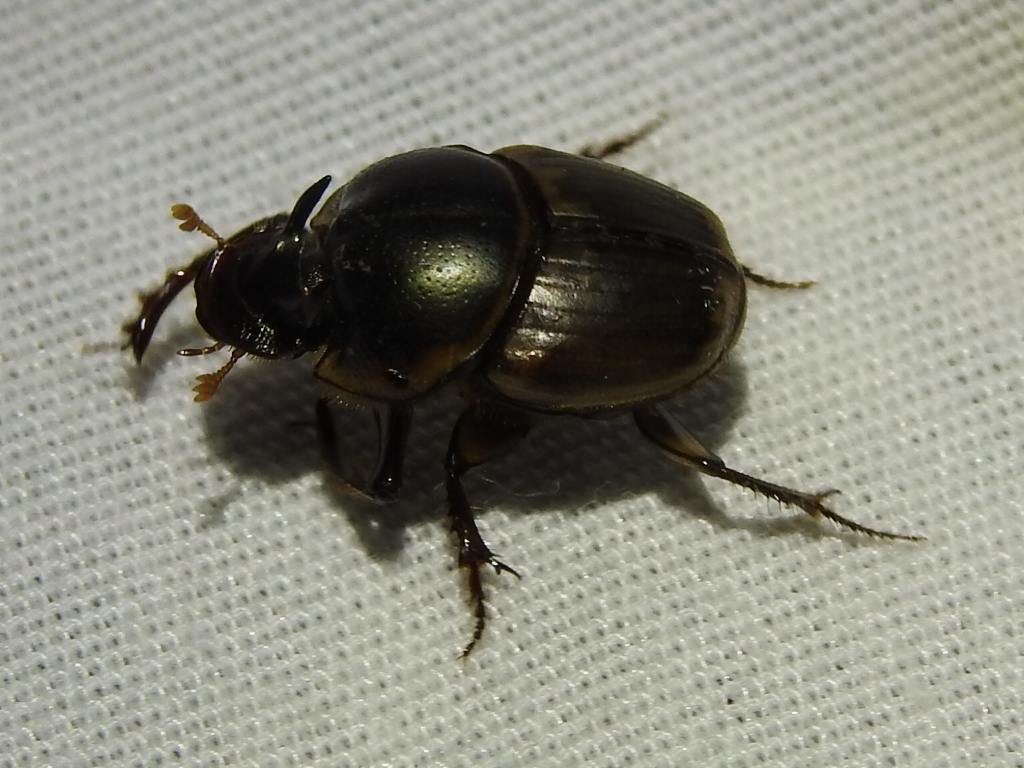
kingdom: Animalia
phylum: Arthropoda
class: Insecta
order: Coleoptera
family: Scarabaeidae
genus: Digitonthophagus
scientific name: Digitonthophagus gazella
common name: Brown dung beetle
